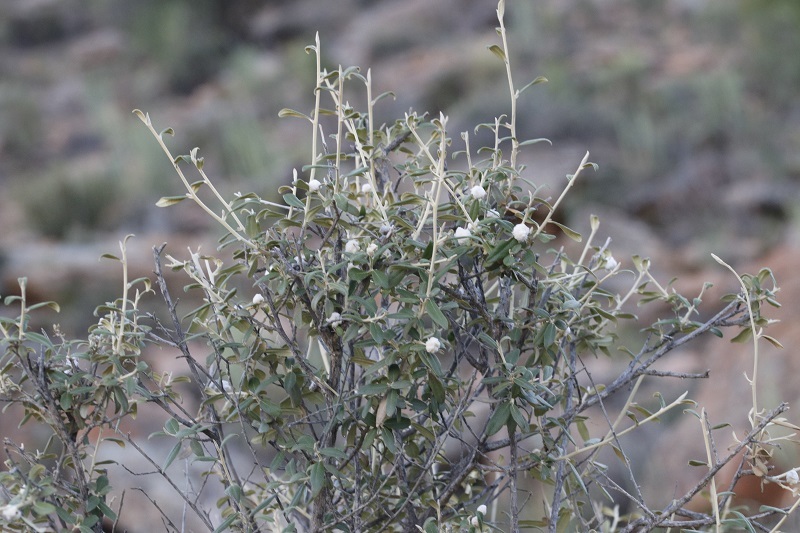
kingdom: Plantae
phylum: Tracheophyta
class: Magnoliopsida
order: Asterales
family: Asteraceae
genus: Tarchonanthus
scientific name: Tarchonanthus minor
